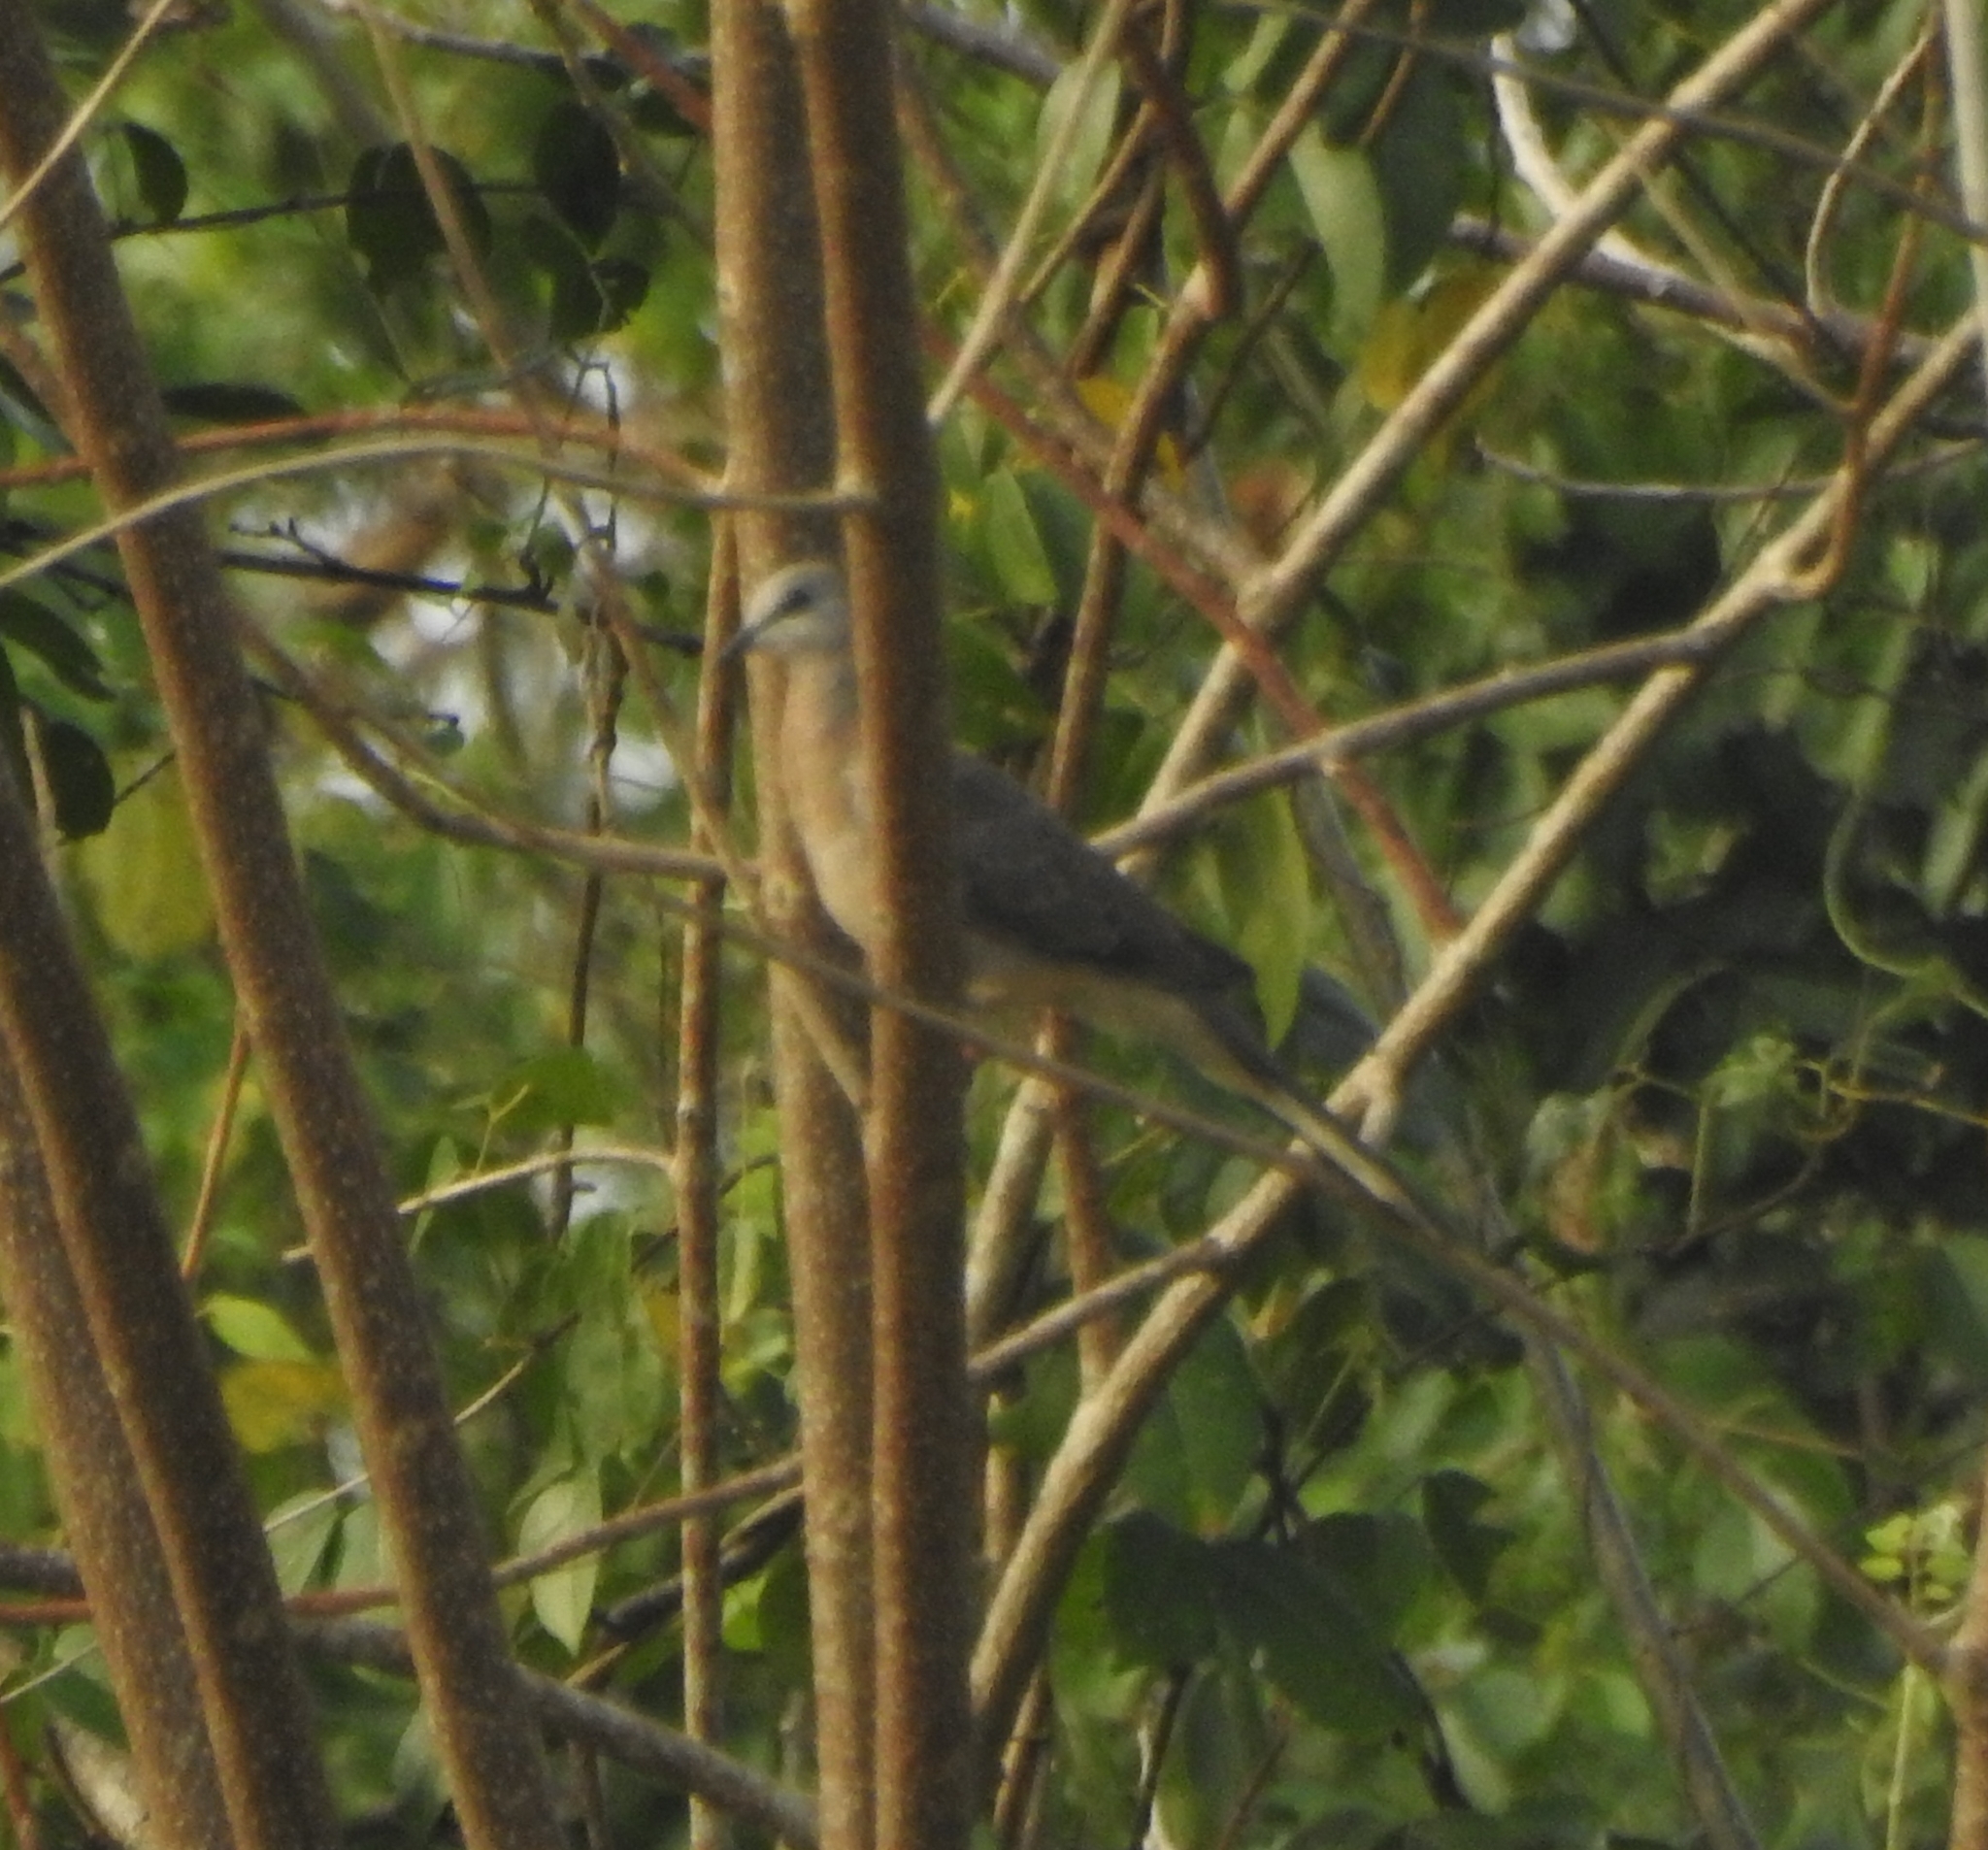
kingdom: Animalia
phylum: Chordata
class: Aves
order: Columbiformes
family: Columbidae
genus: Spilopelia
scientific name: Spilopelia chinensis
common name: Spotted dove
